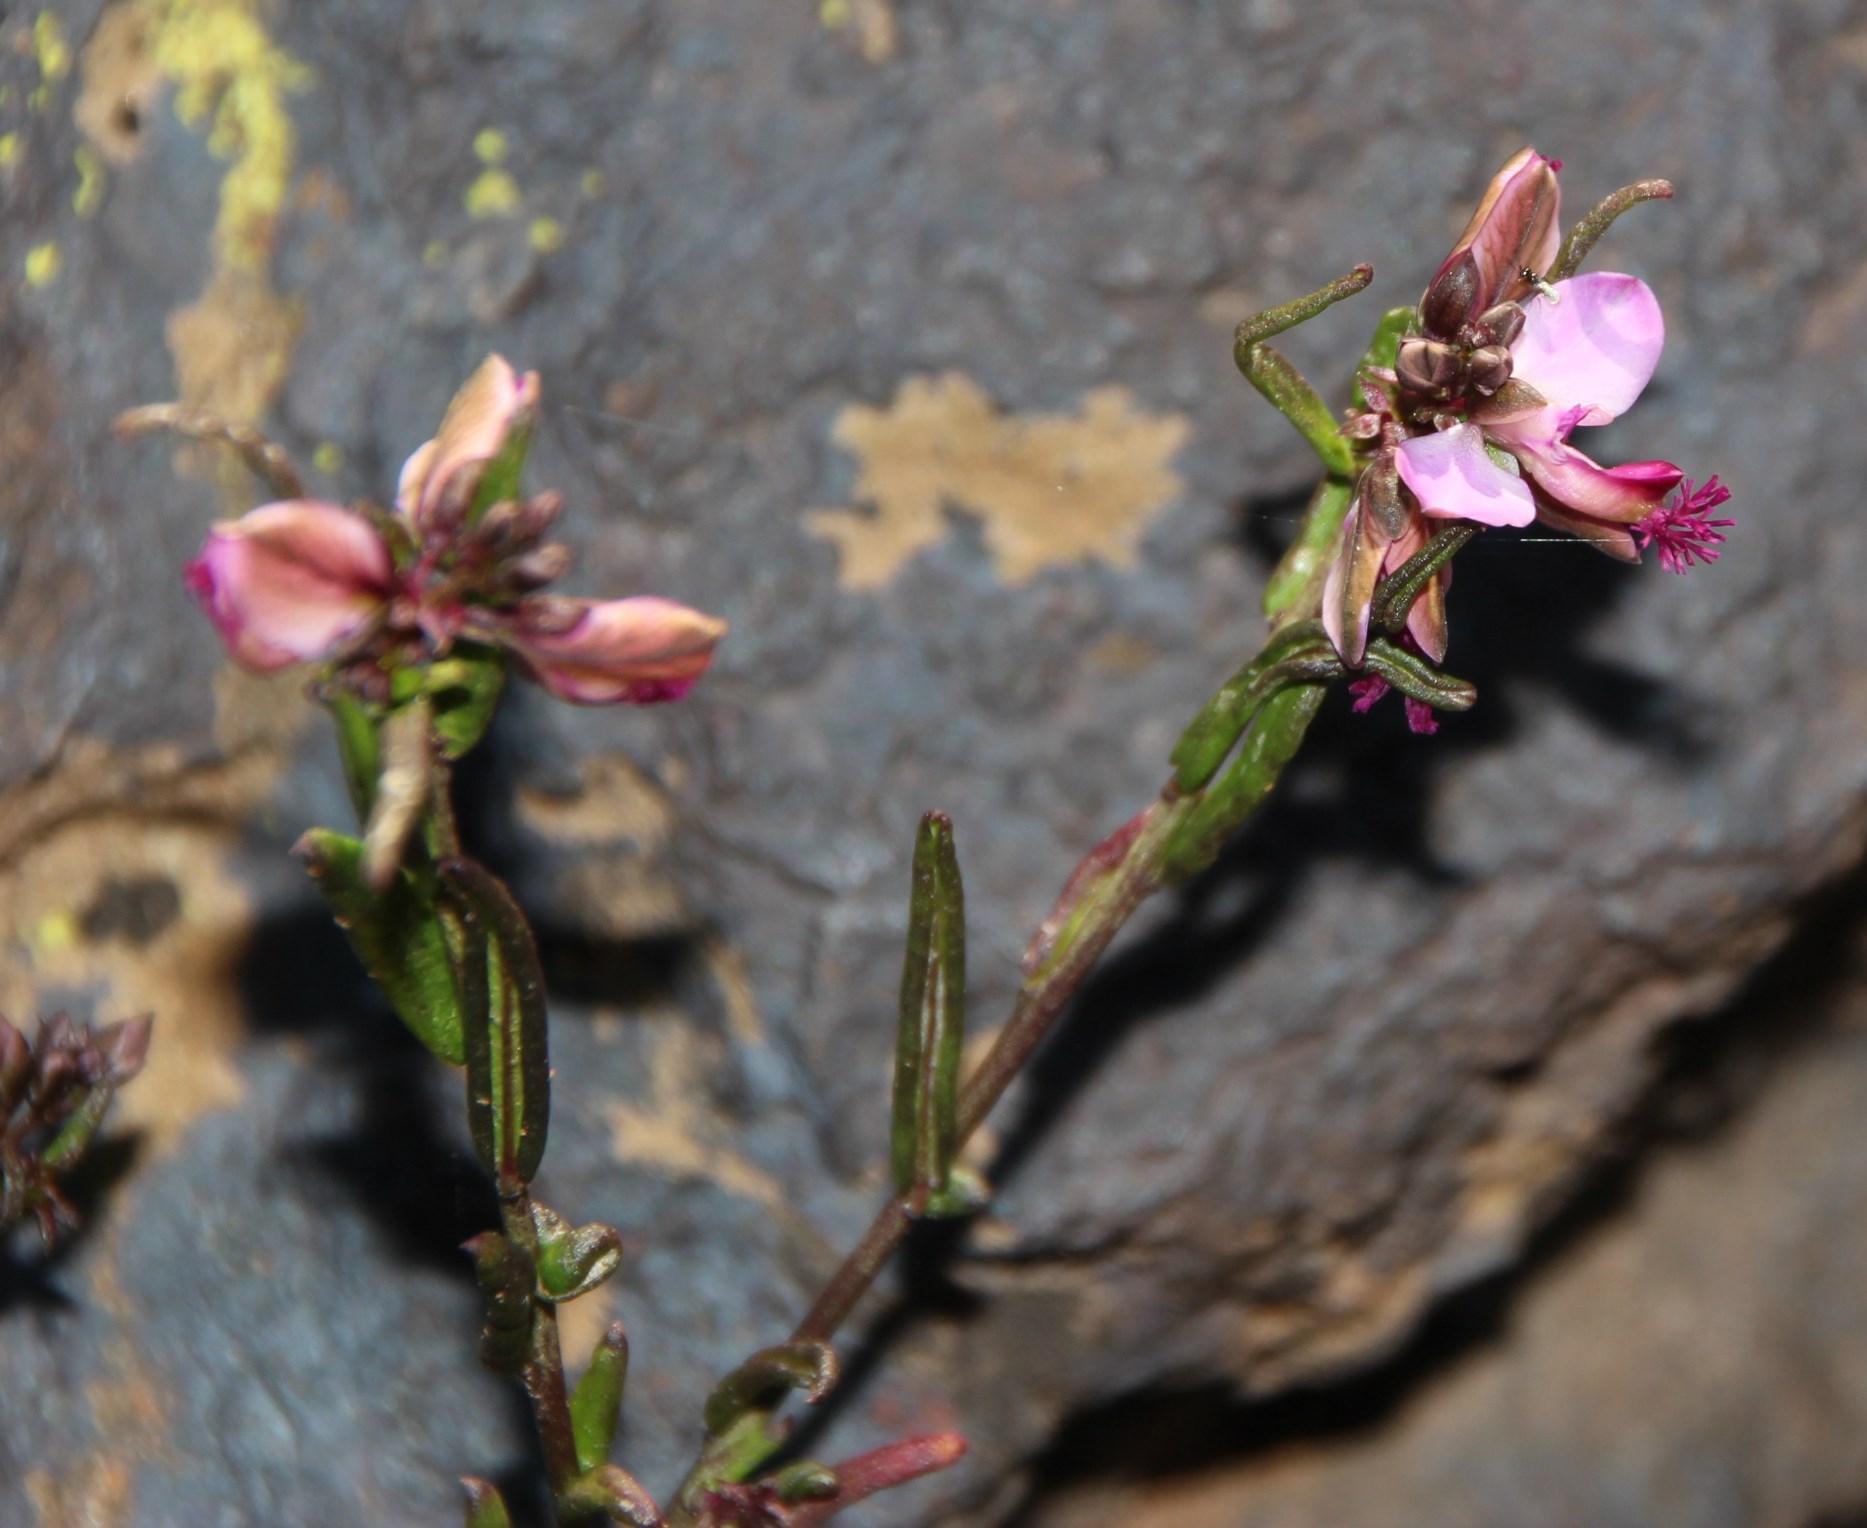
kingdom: Plantae
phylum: Tracheophyta
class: Magnoliopsida
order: Fabales
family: Polygalaceae
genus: Polygala
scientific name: Polygala scabra
